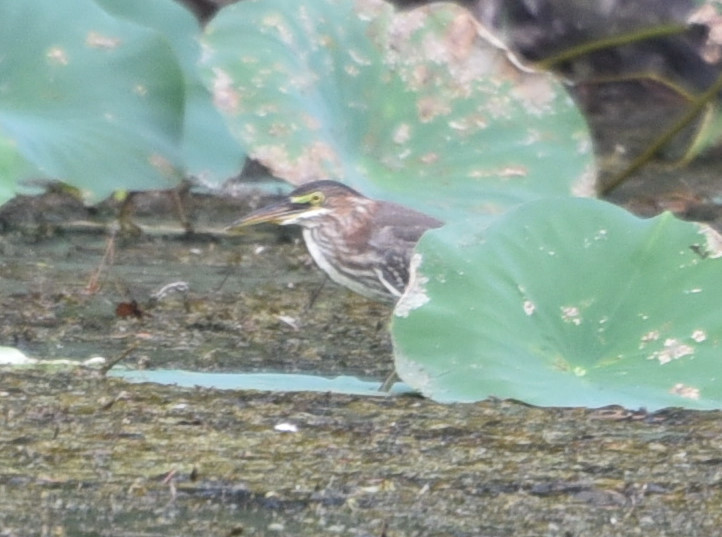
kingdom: Animalia
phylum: Chordata
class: Aves
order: Pelecaniformes
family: Ardeidae
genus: Butorides
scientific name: Butorides virescens
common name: Green heron
